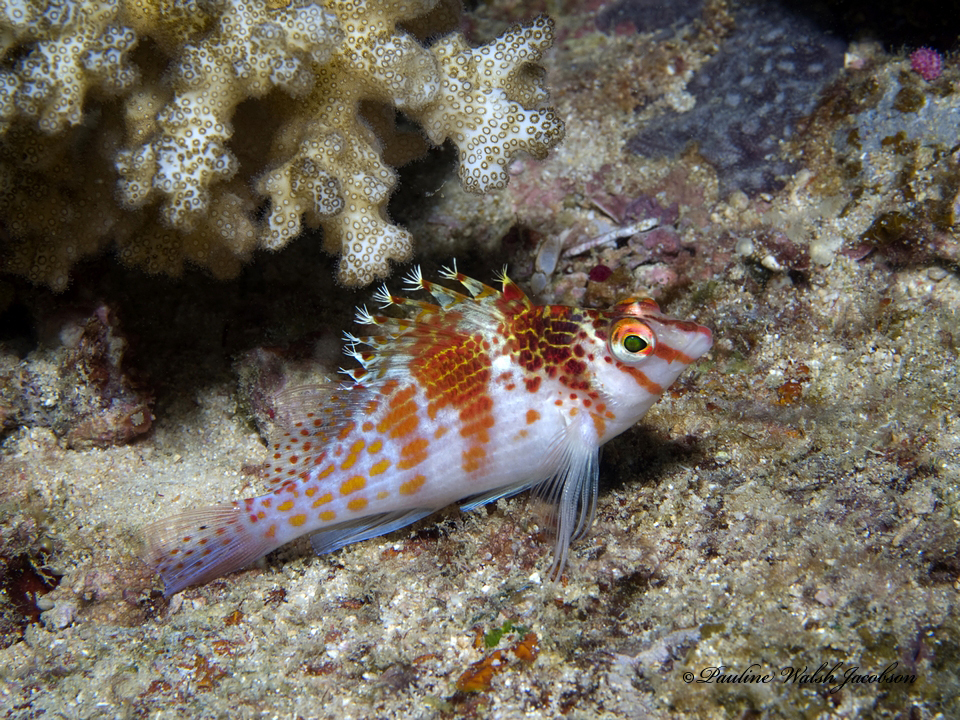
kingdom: Animalia
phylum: Chordata
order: Perciformes
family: Cirrhitidae
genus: Cirrhitichthys
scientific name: Cirrhitichthys falco
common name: Coral hawkfish
